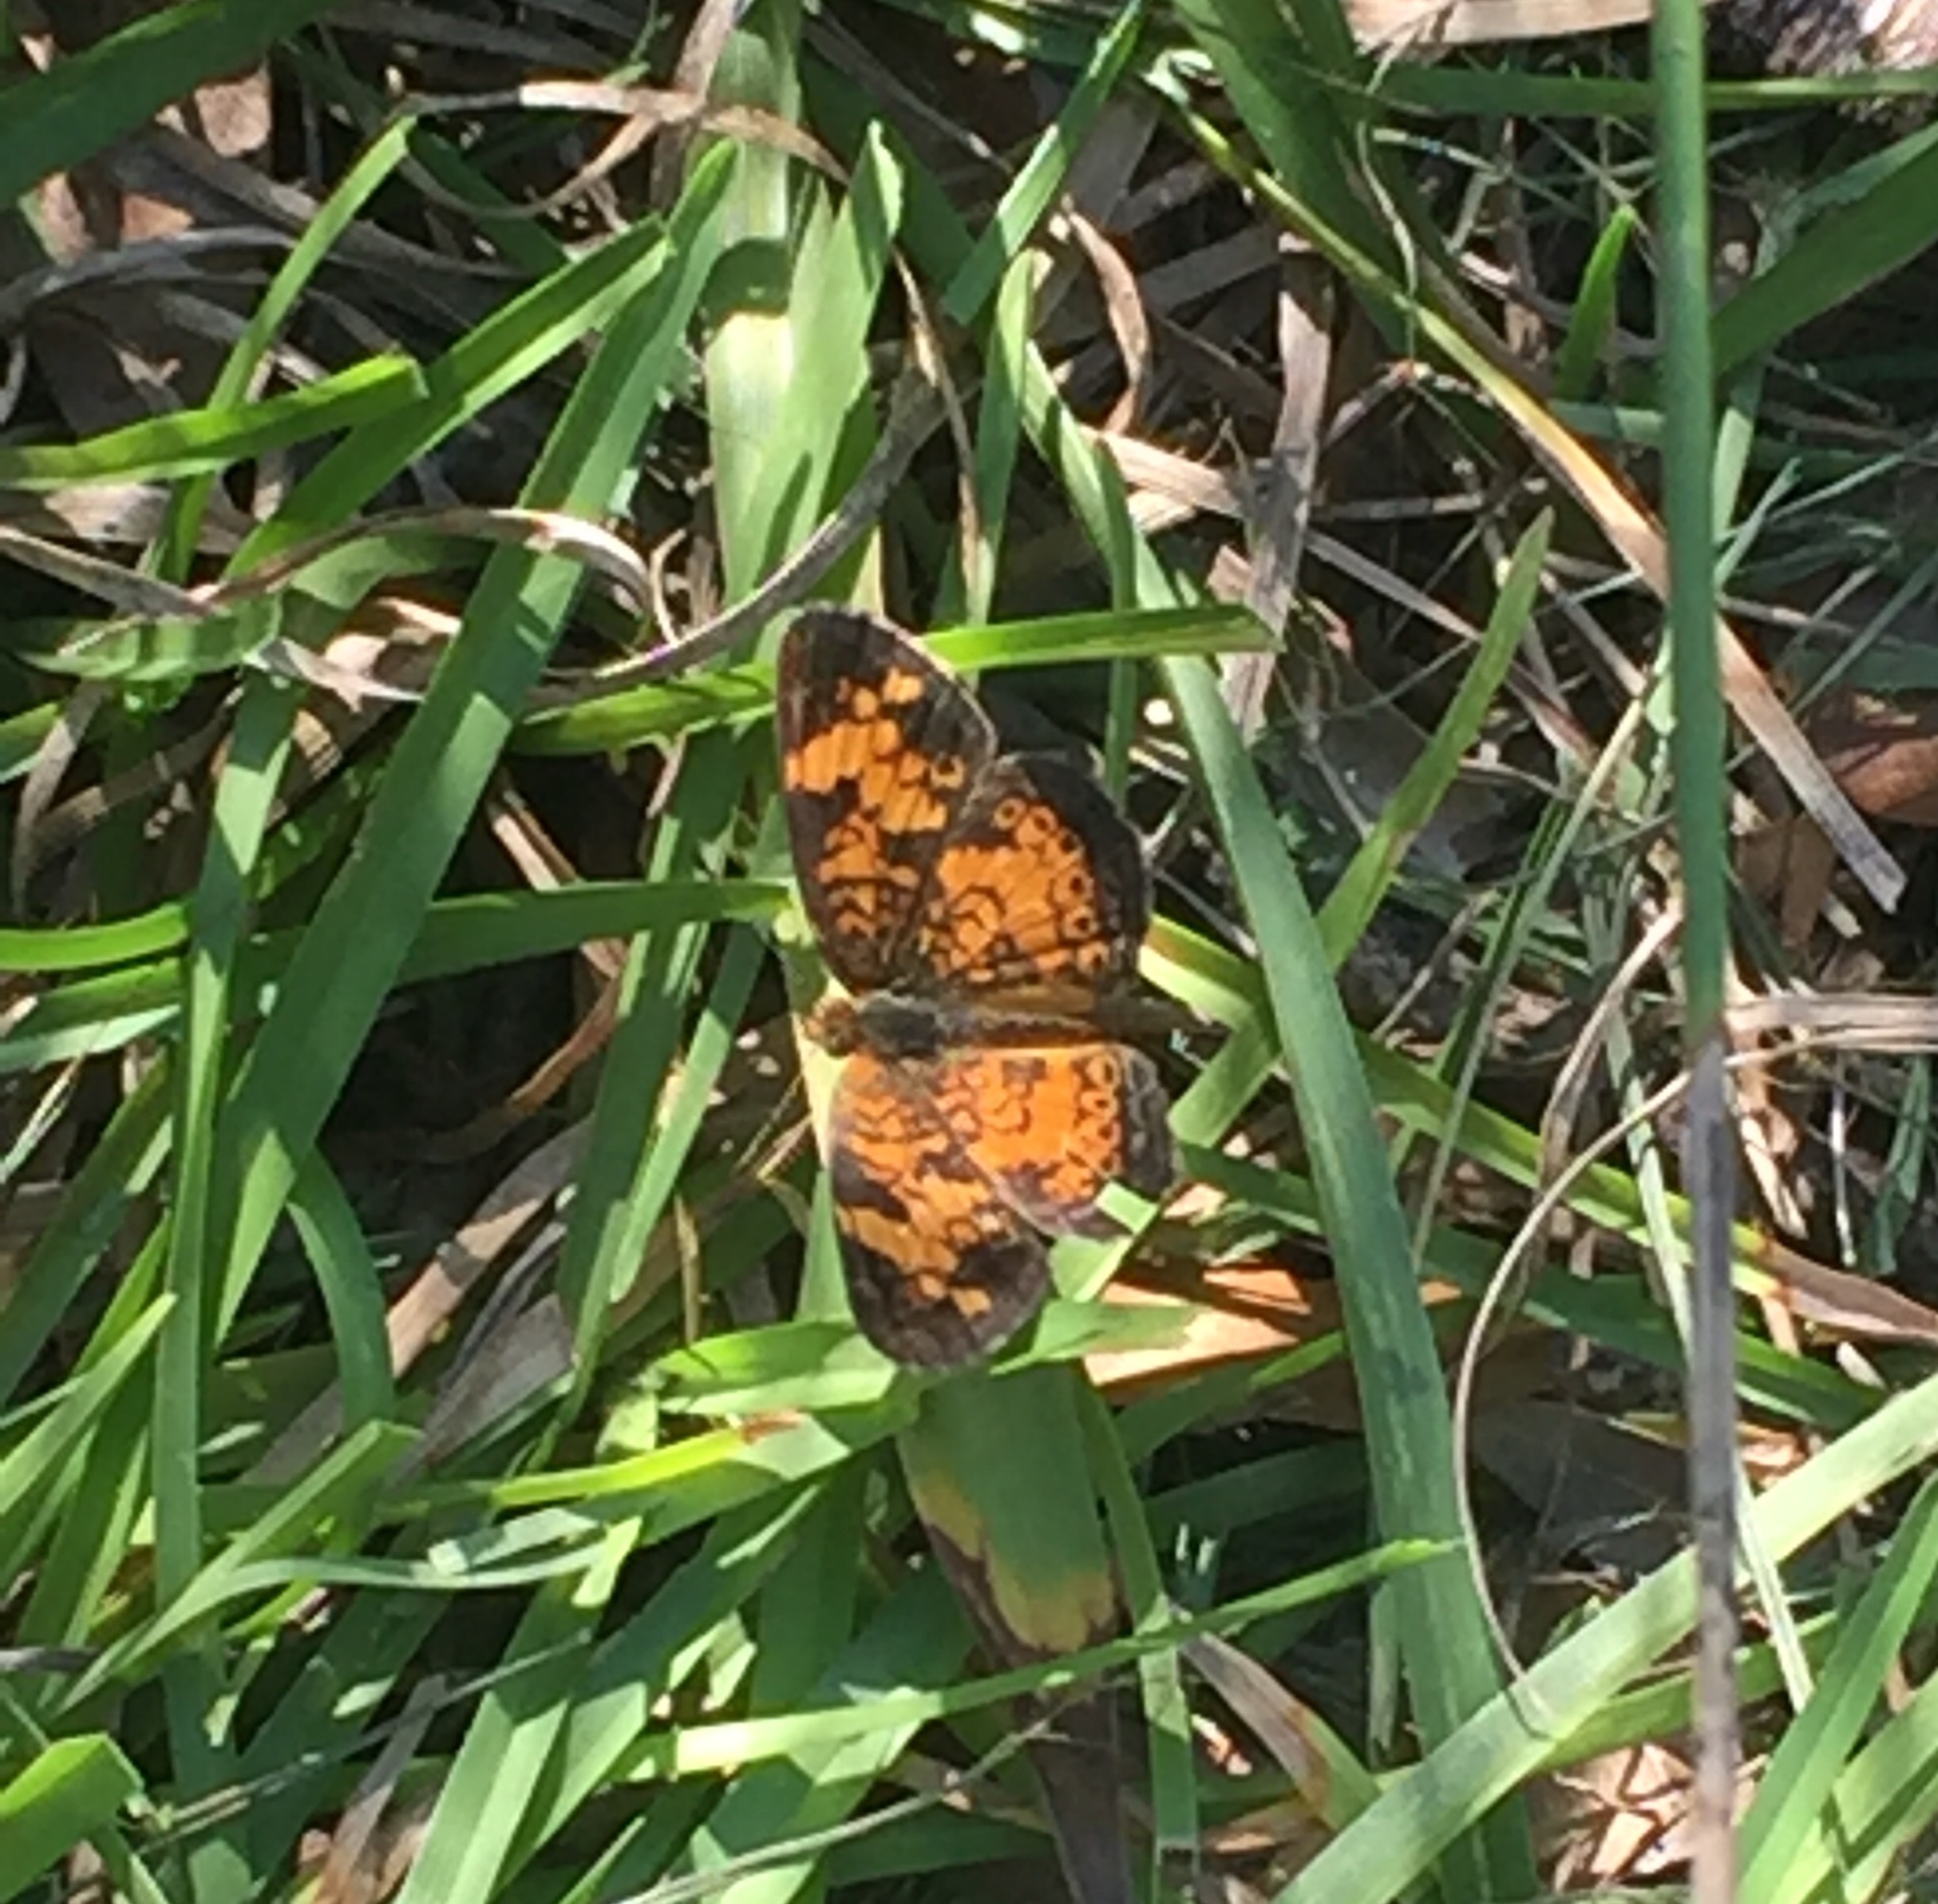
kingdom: Animalia
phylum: Arthropoda
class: Insecta
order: Lepidoptera
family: Nymphalidae
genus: Phyciodes
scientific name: Phyciodes tharos
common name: Pearl crescent
